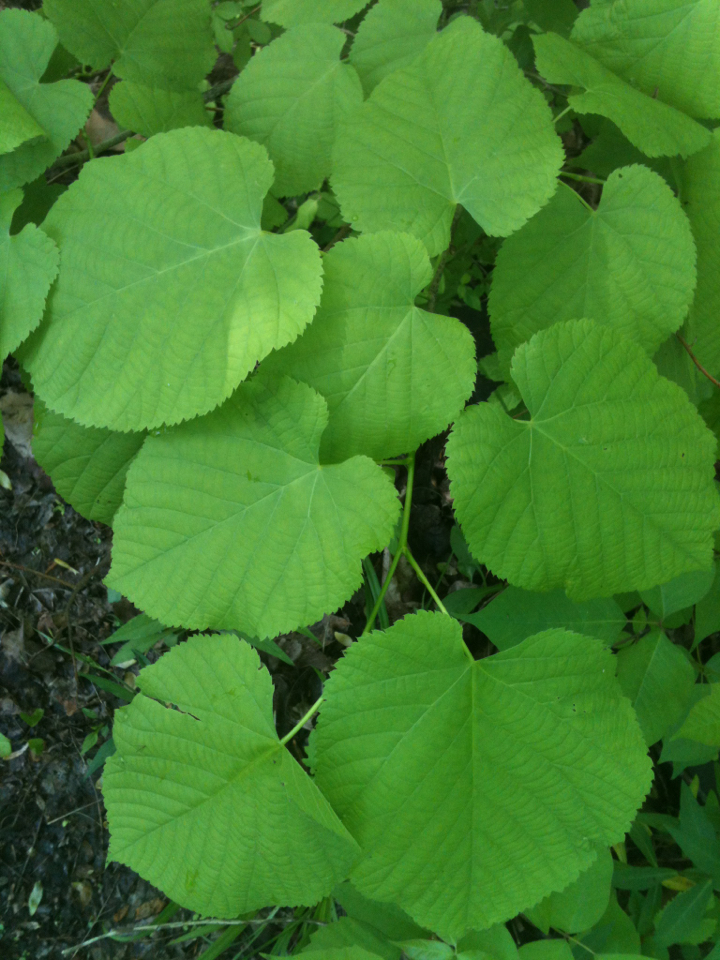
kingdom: Plantae
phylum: Tracheophyta
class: Magnoliopsida
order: Malvales
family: Malvaceae
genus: Tilia
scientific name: Tilia americana
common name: Basswood
